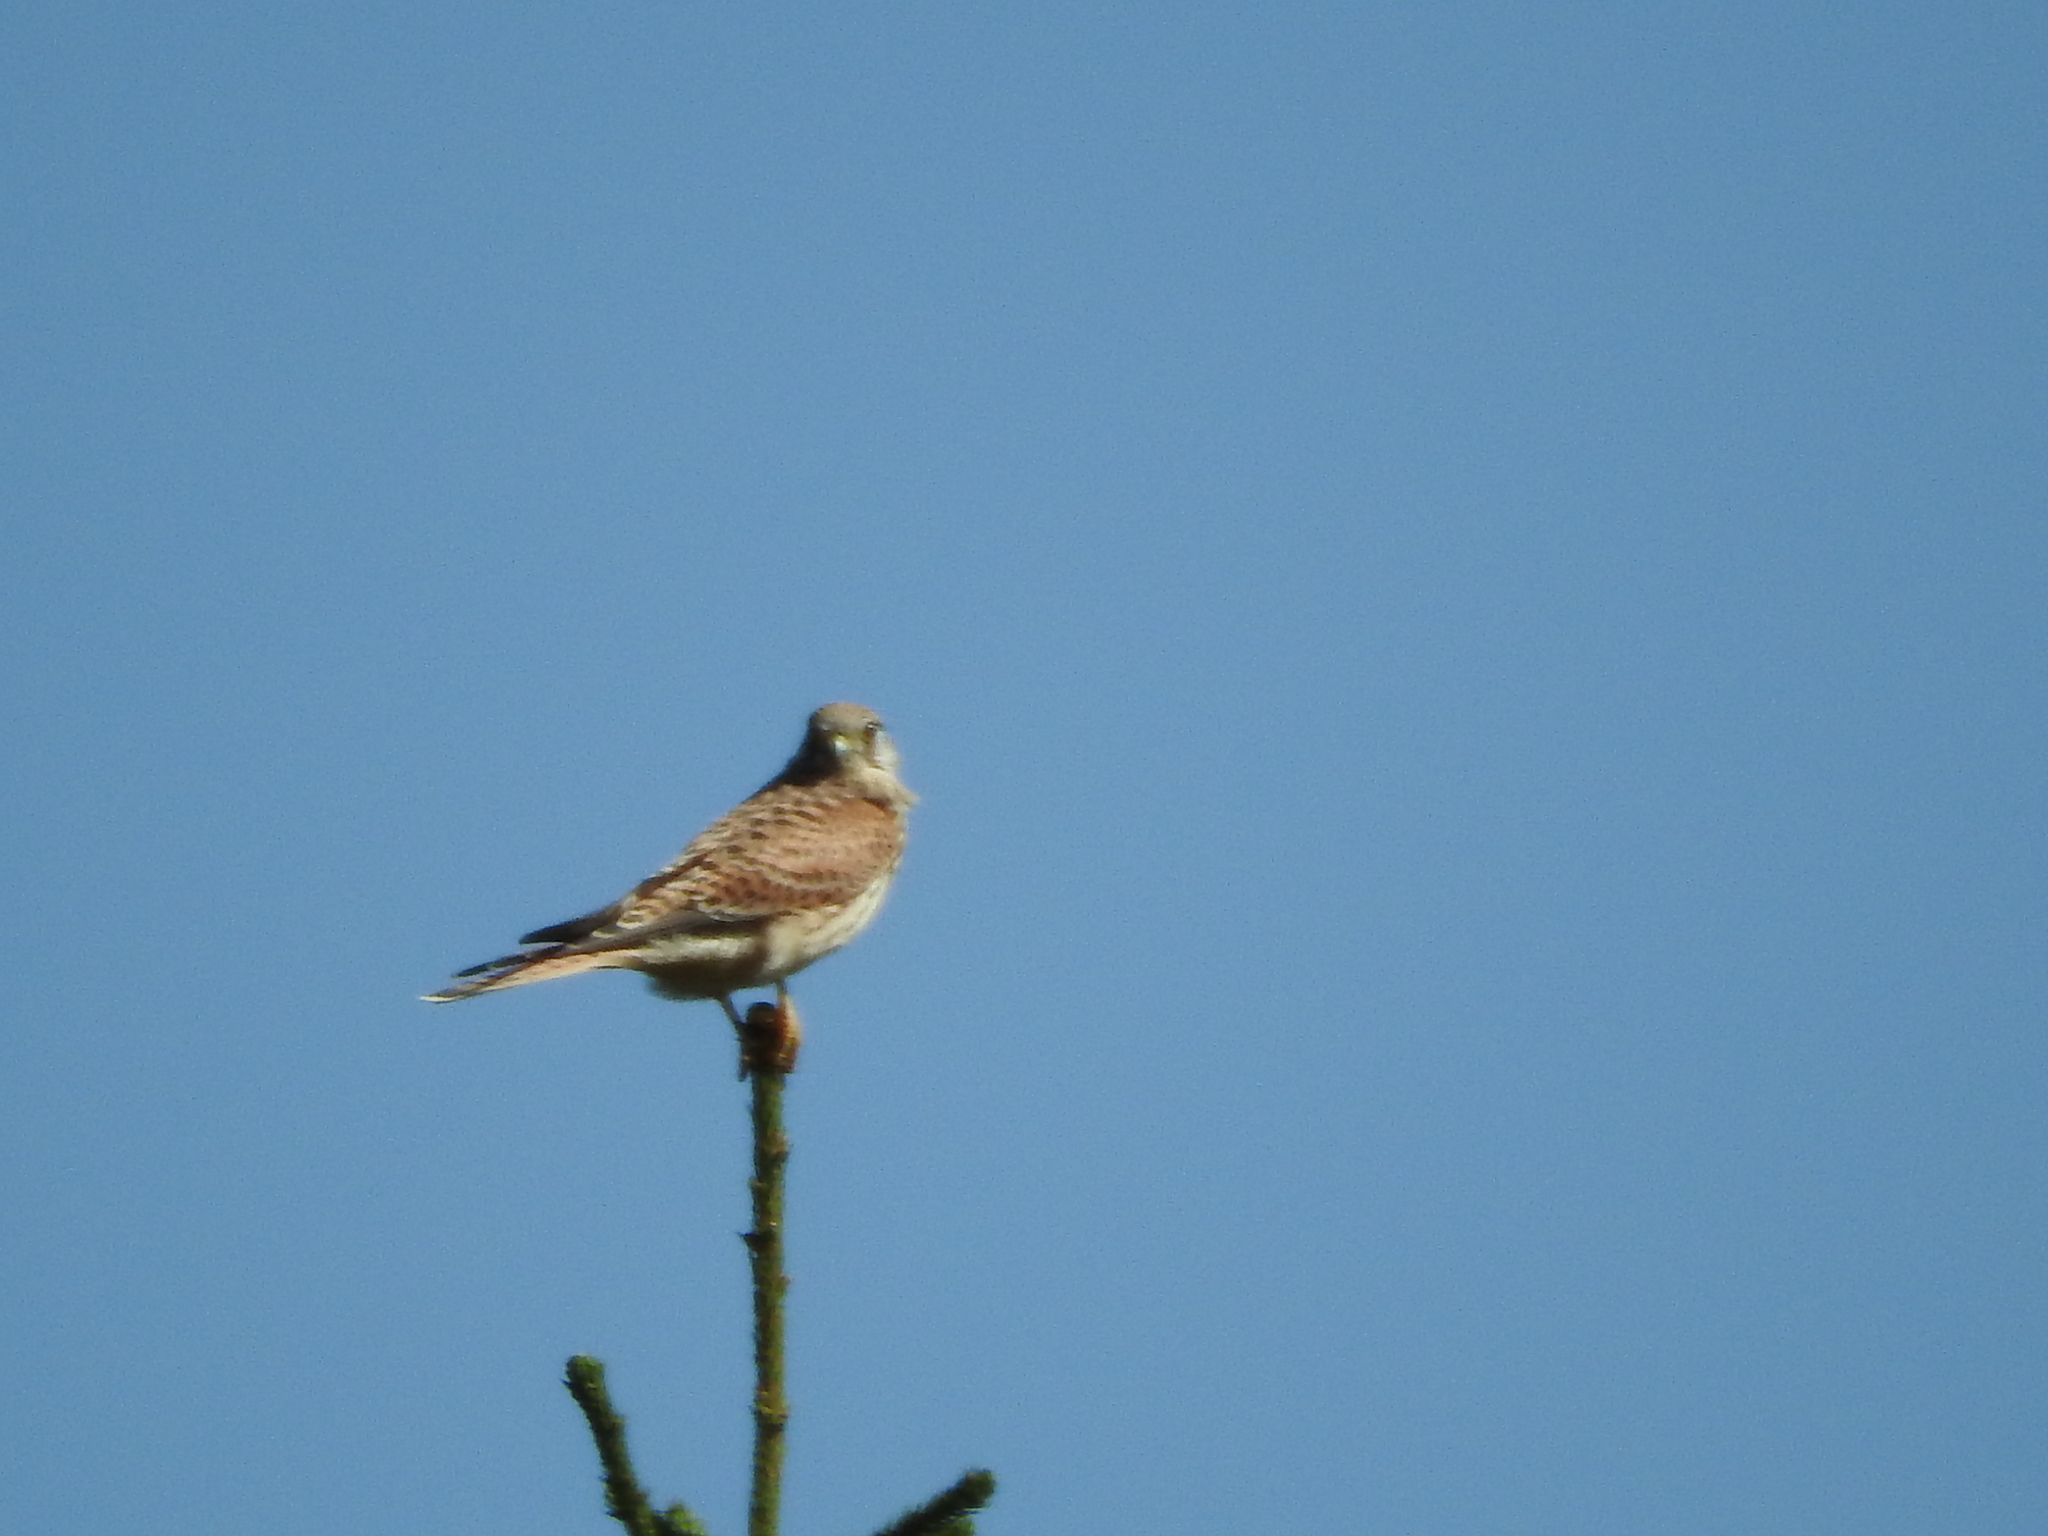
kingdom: Animalia
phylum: Chordata
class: Aves
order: Falconiformes
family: Falconidae
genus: Falco
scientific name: Falco tinnunculus
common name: Common kestrel
